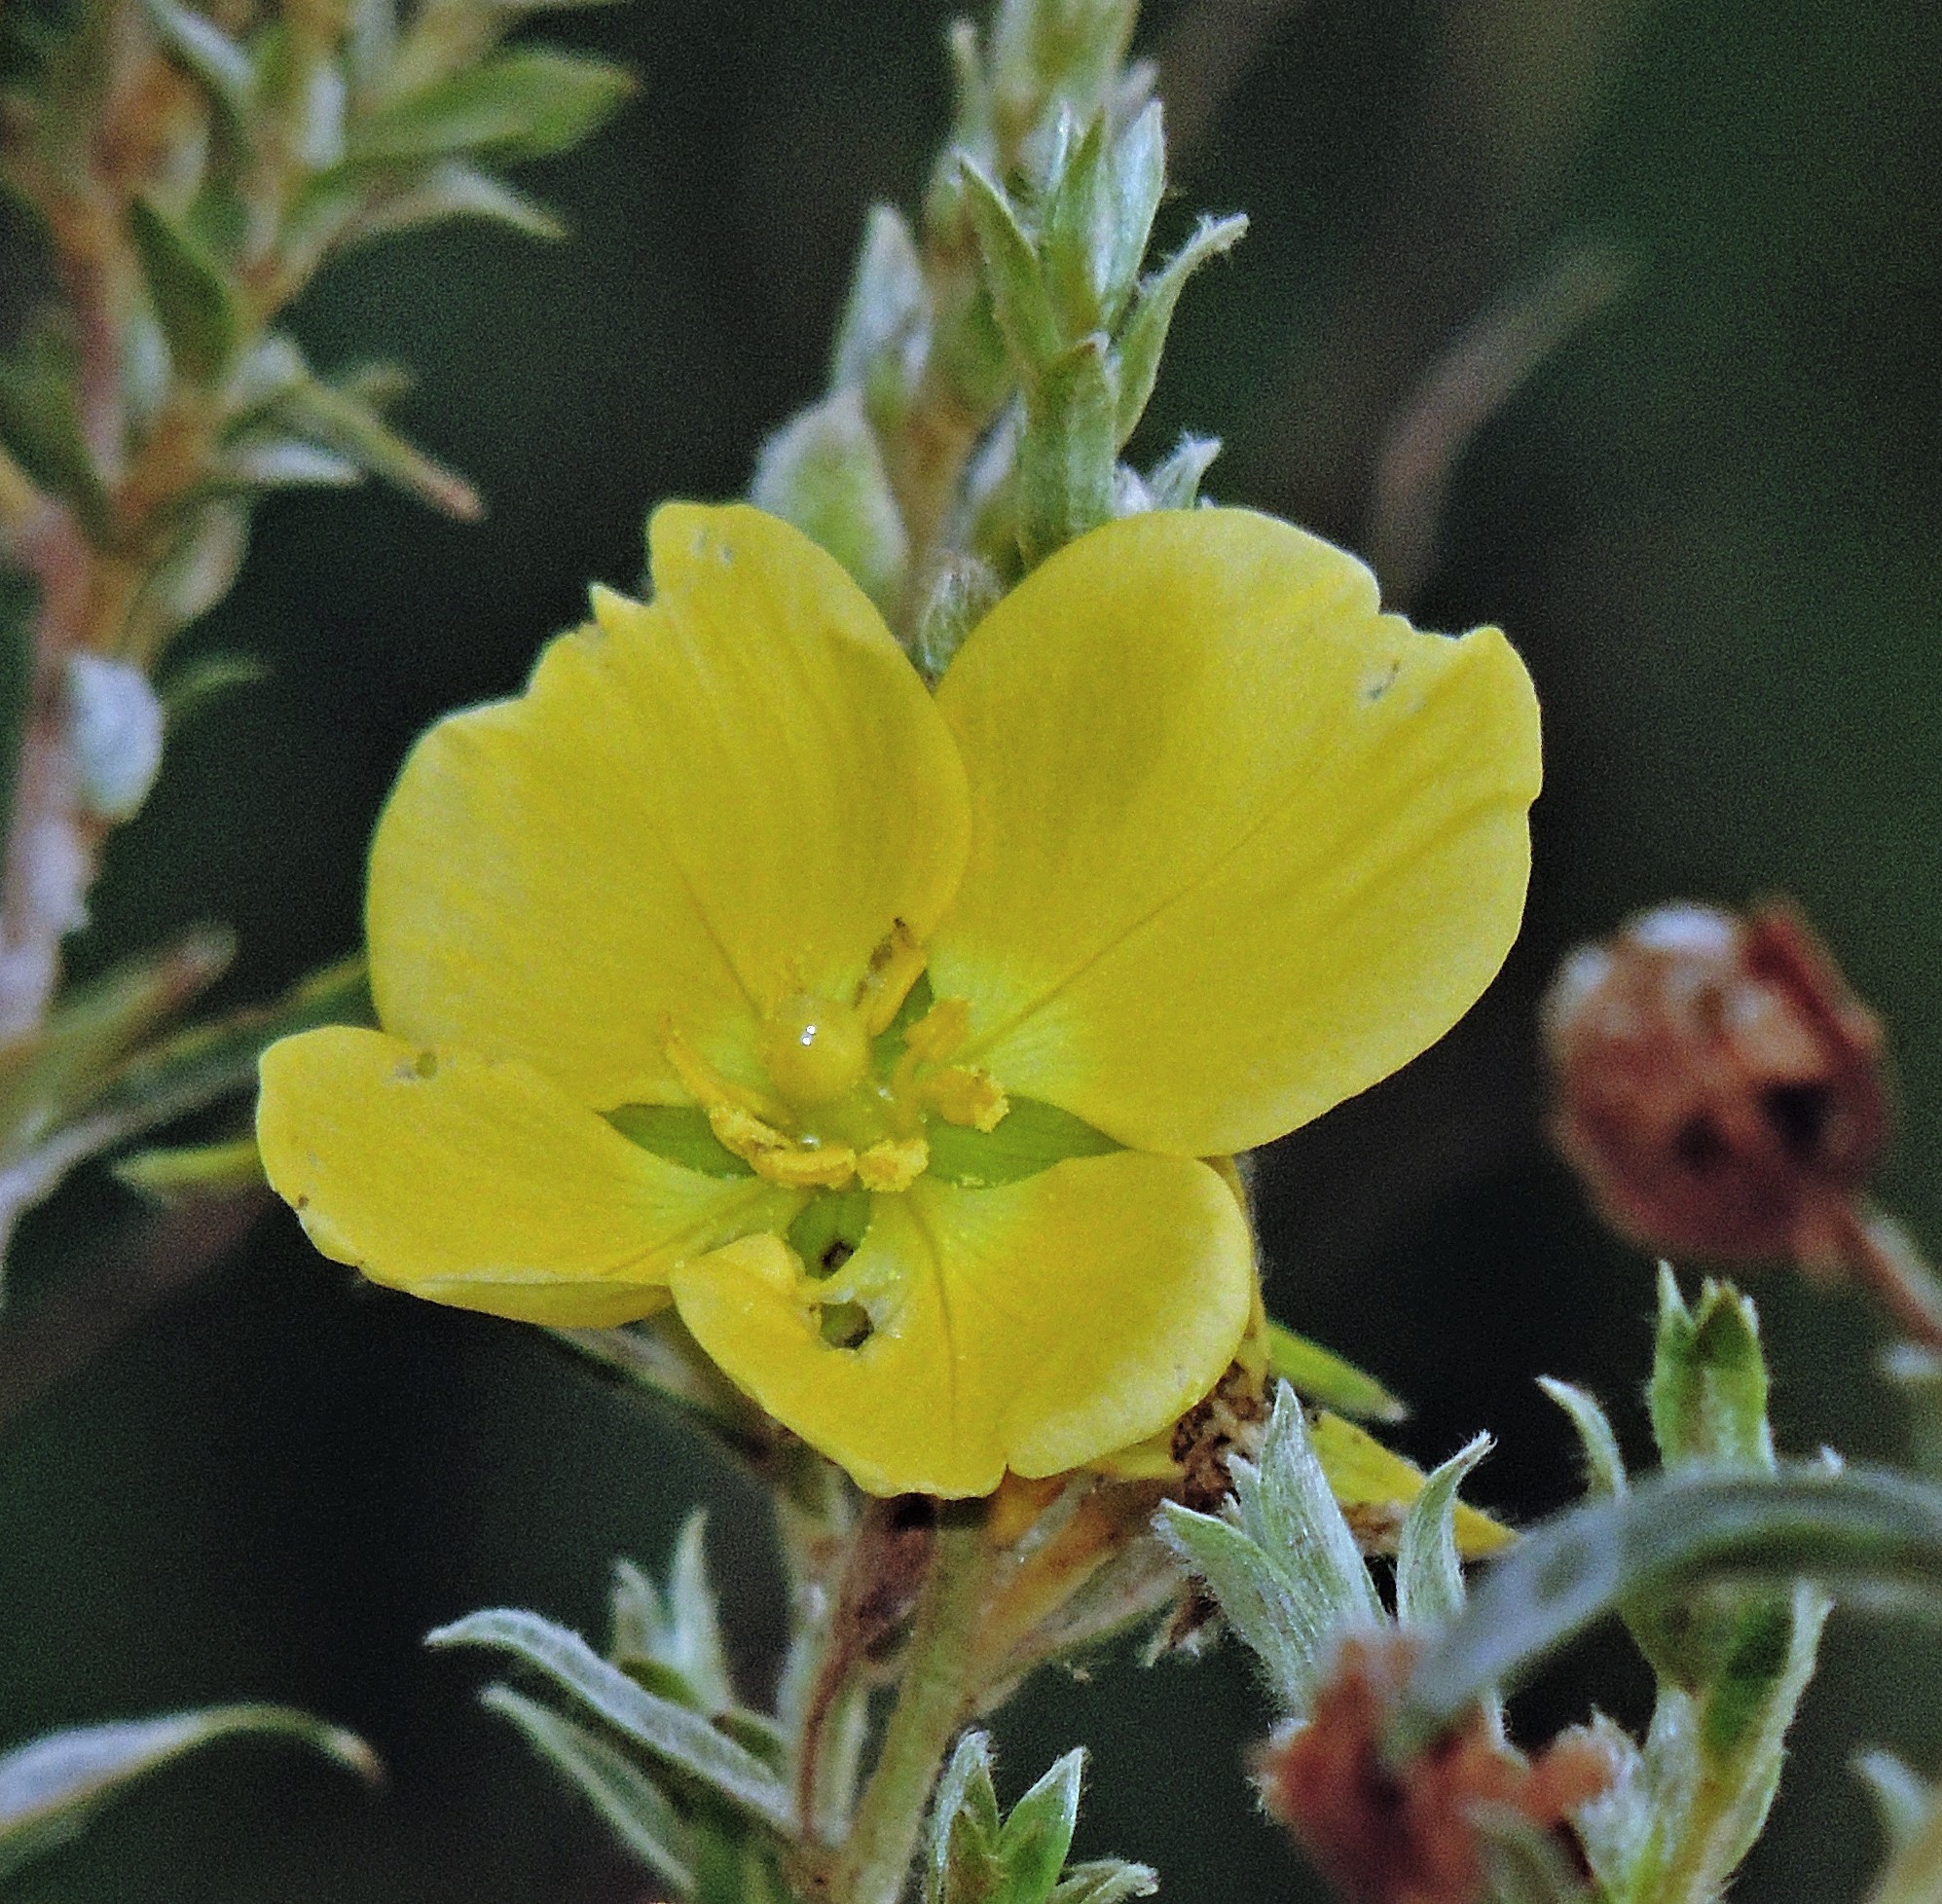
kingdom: Plantae
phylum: Tracheophyta
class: Magnoliopsida
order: Myrtales
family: Onagraceae
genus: Ludwigia
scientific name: Ludwigia sericea
